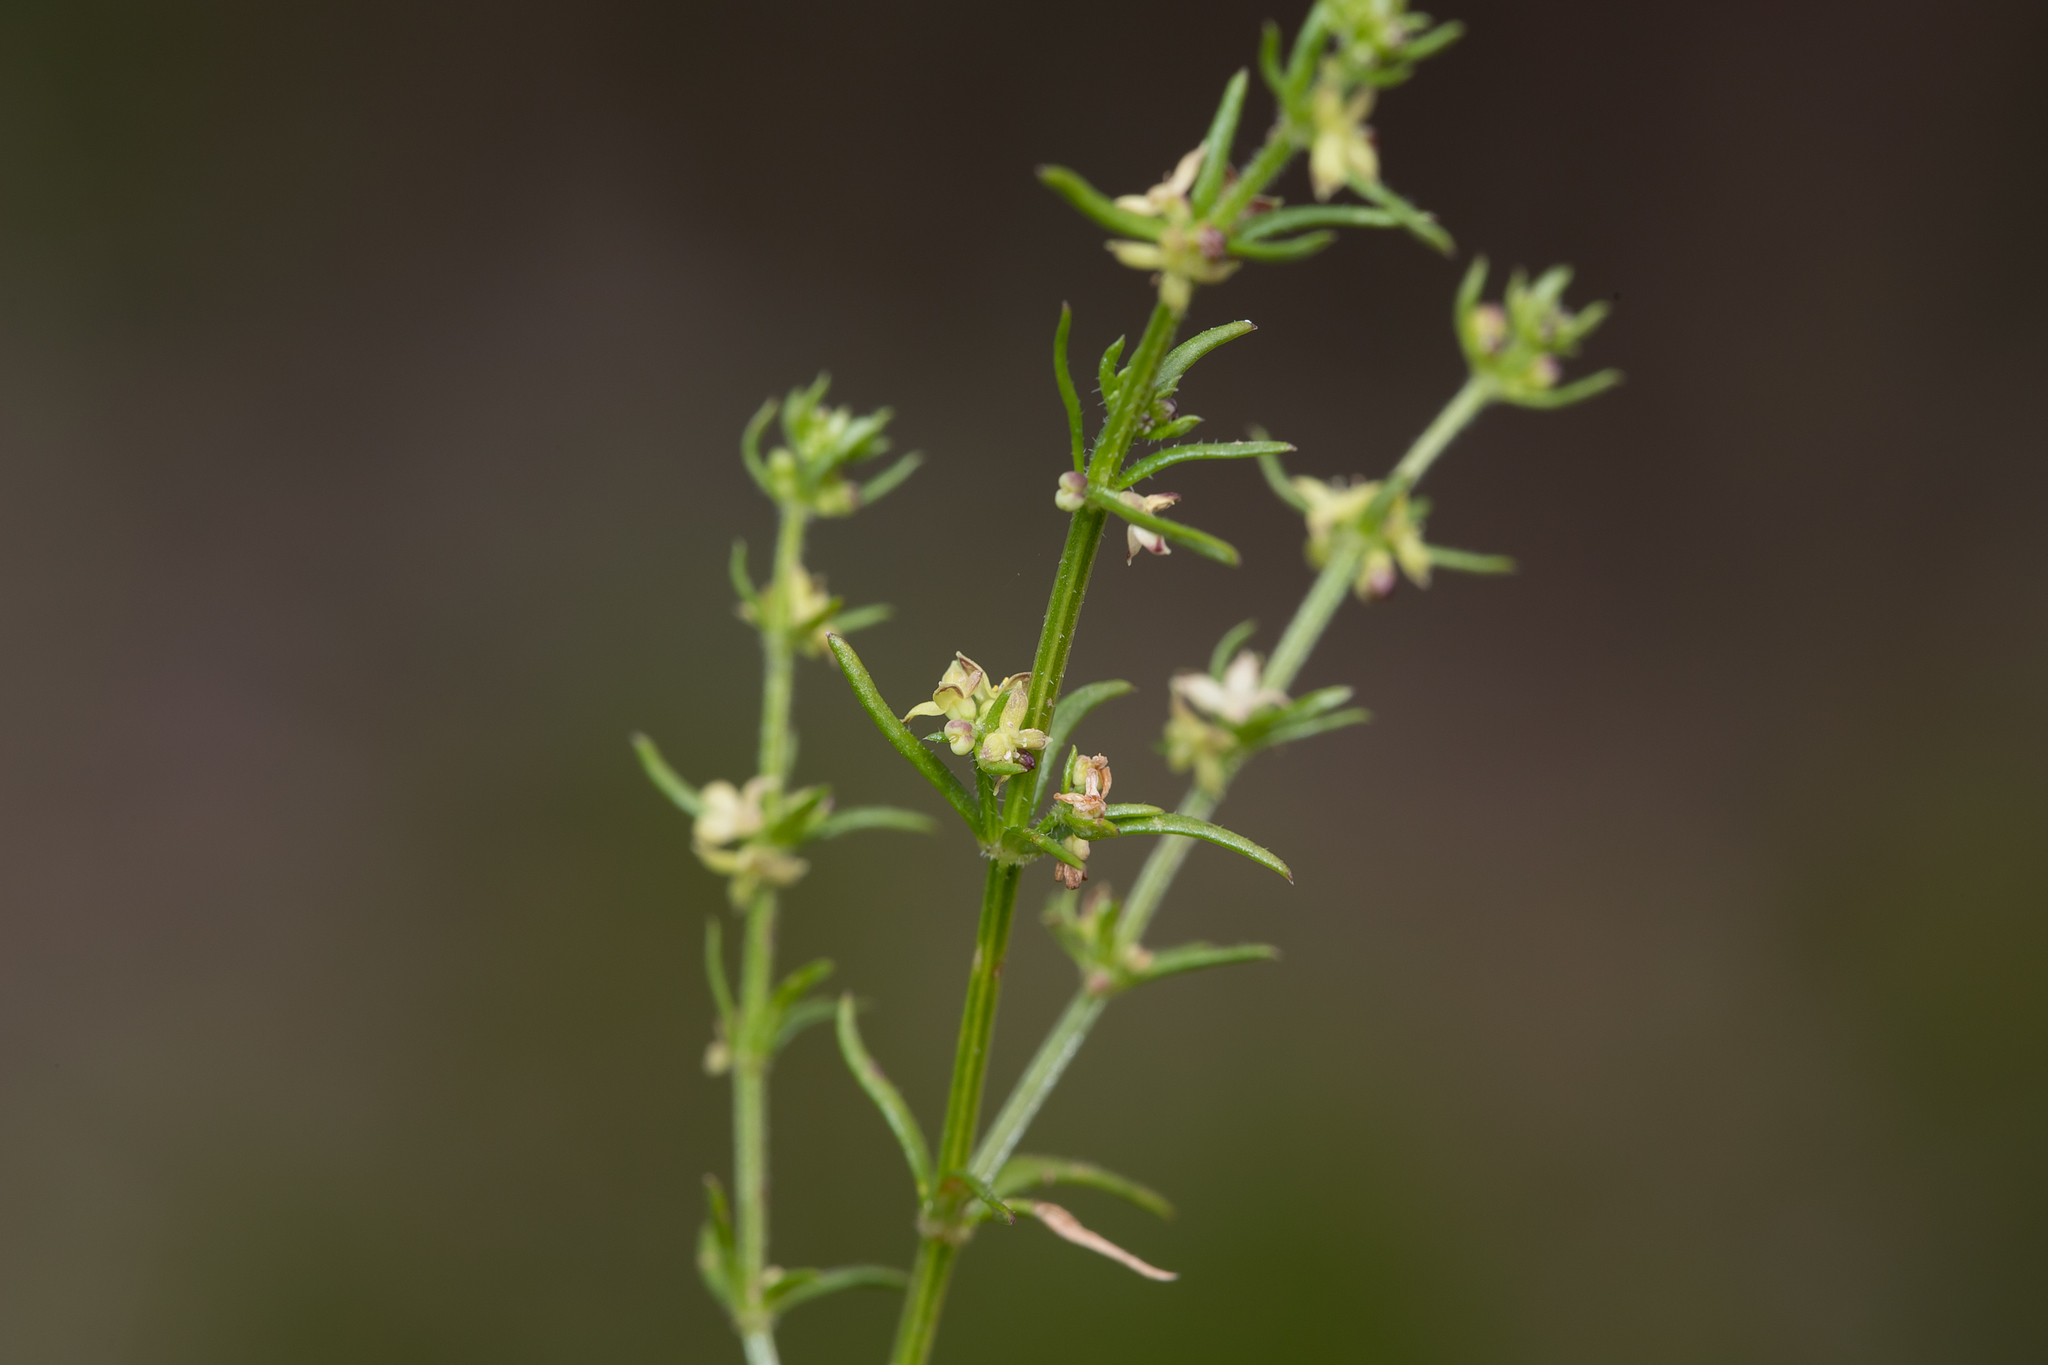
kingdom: Plantae
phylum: Tracheophyta
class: Magnoliopsida
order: Gentianales
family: Rubiaceae
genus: Galium
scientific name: Galium gaudichaudii
